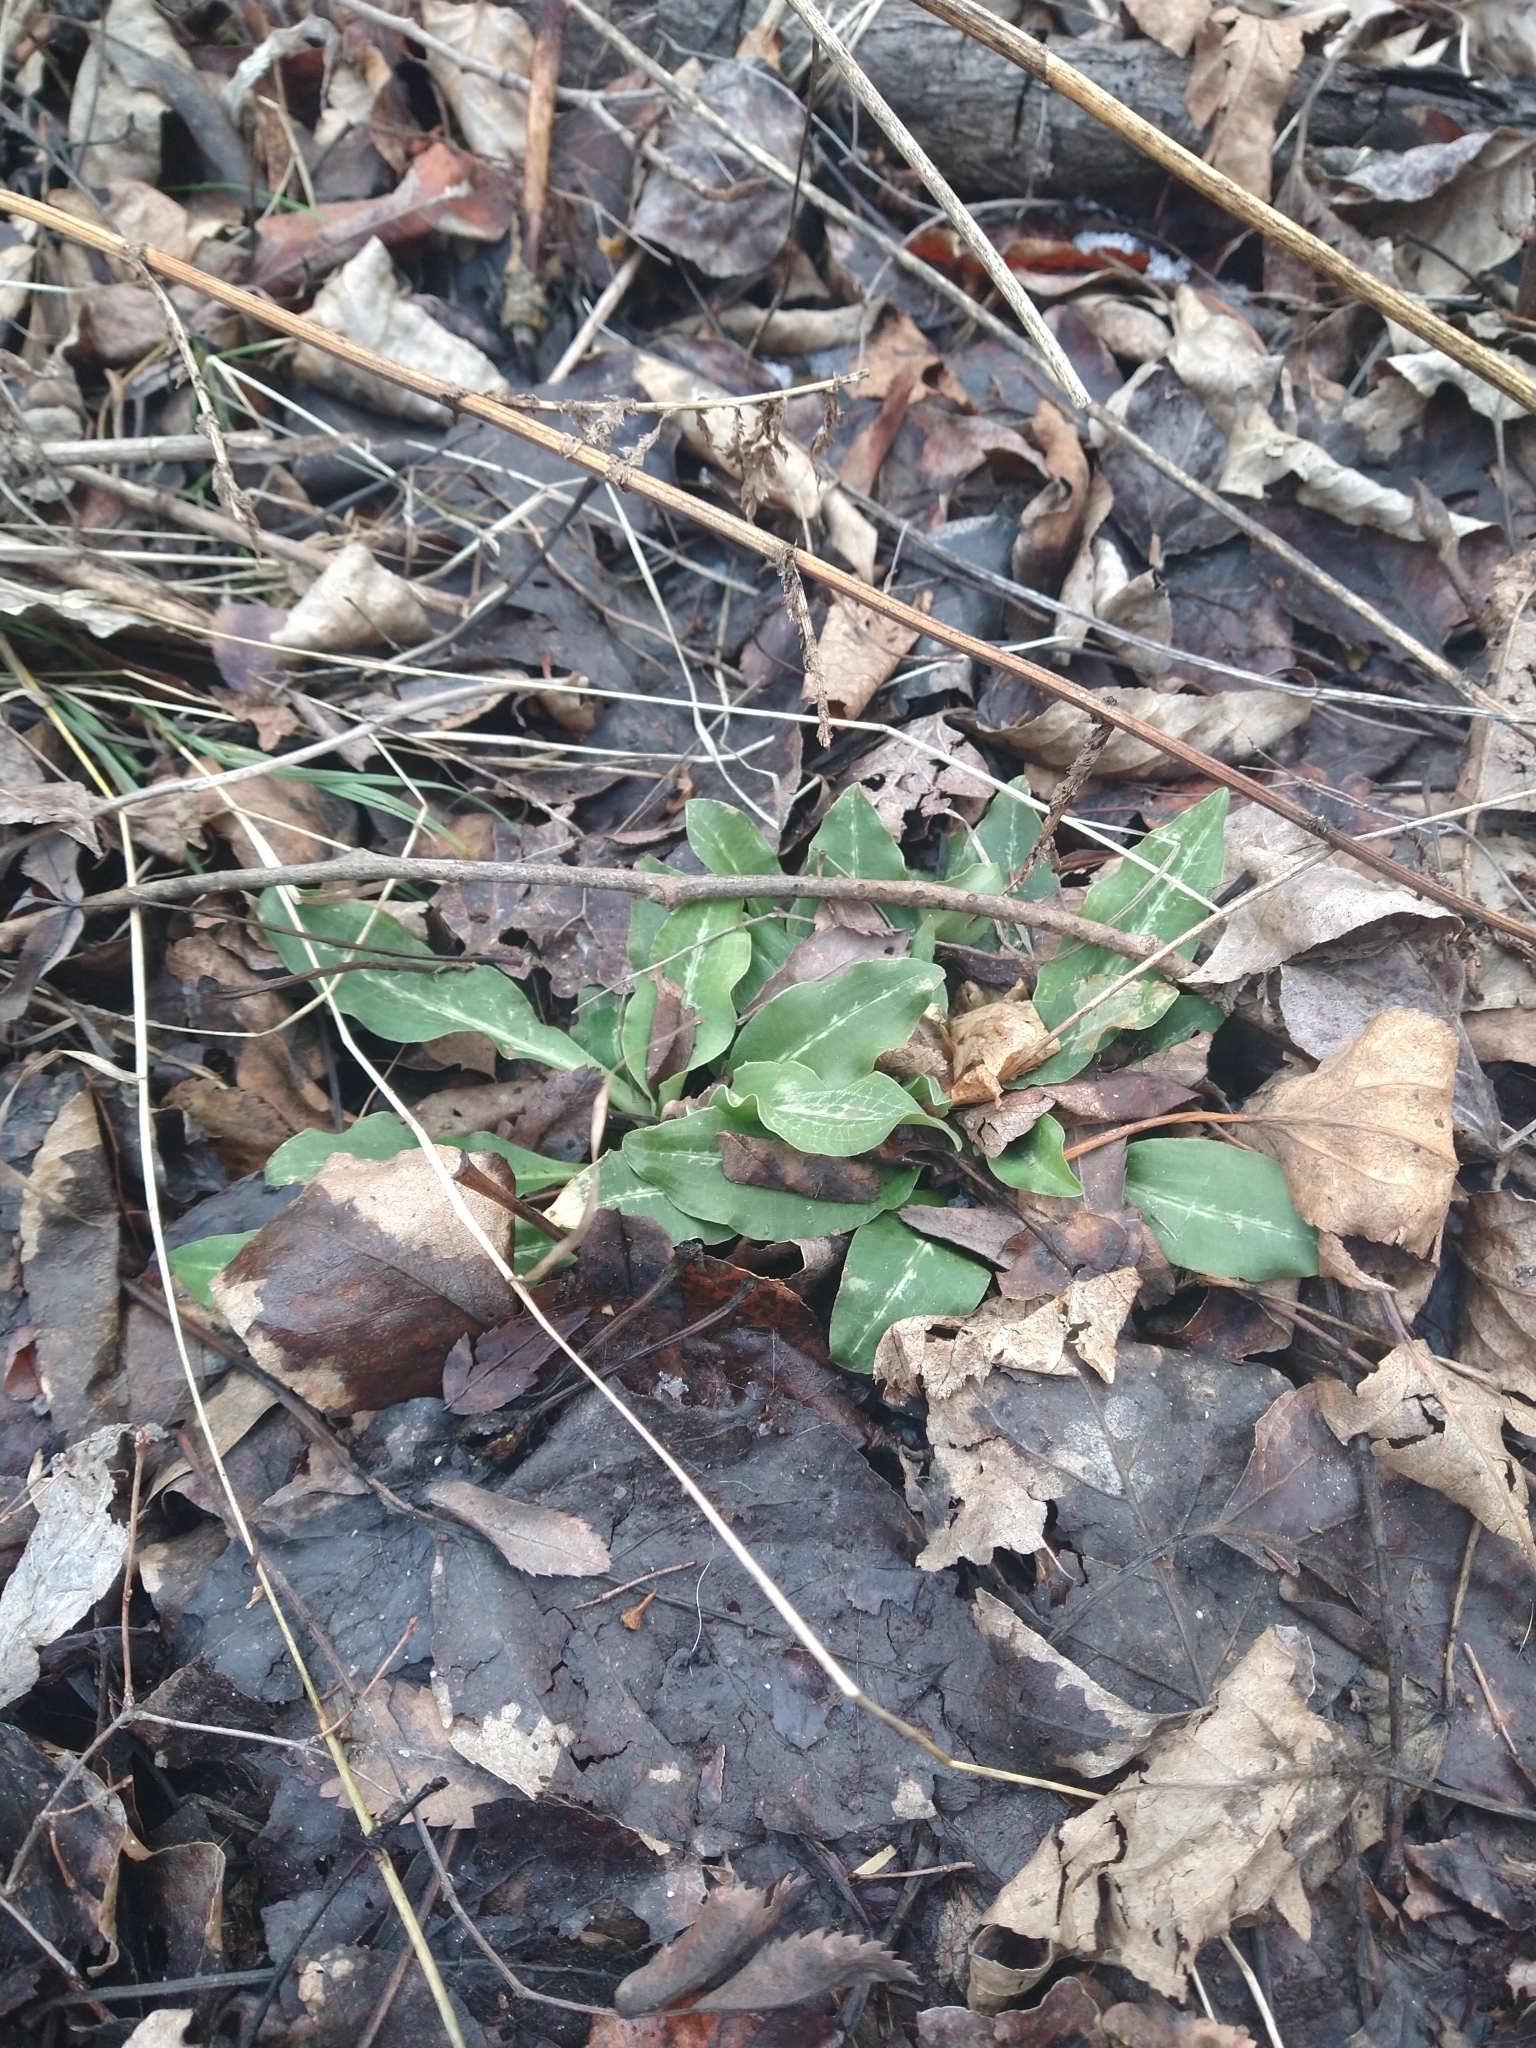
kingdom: Plantae
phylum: Tracheophyta
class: Liliopsida
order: Asparagales
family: Orchidaceae
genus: Goodyera
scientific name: Goodyera oblongifolia
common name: Giant rattlesnake-plantain
